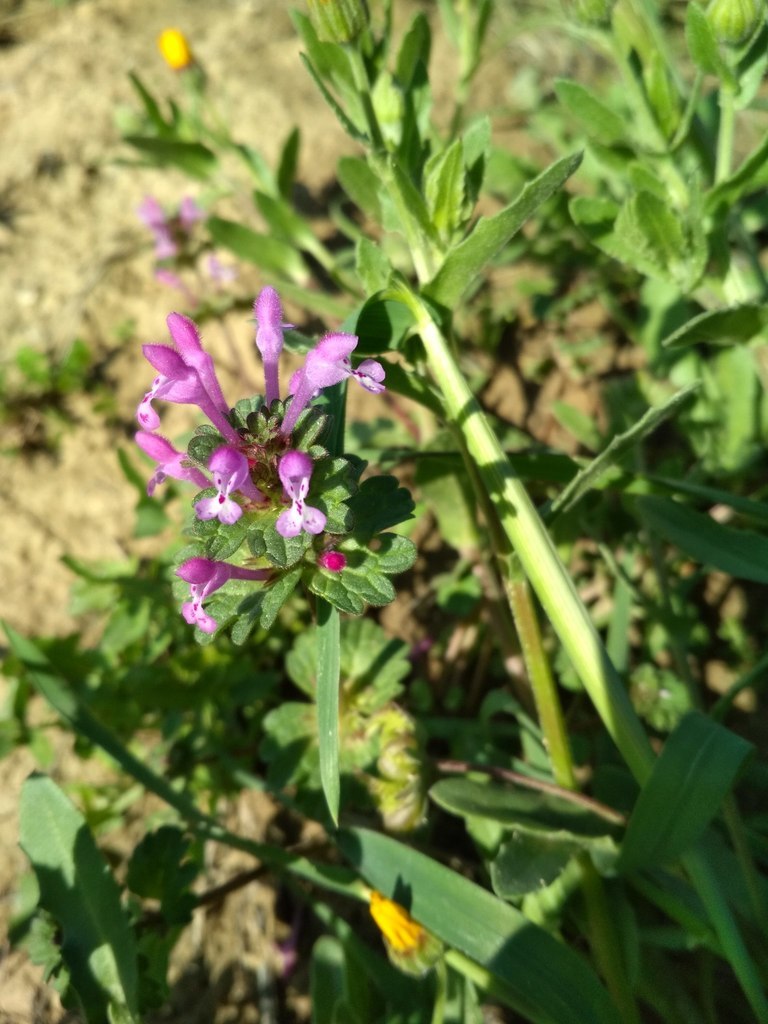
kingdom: Plantae
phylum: Tracheophyta
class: Magnoliopsida
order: Lamiales
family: Lamiaceae
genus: Lamium
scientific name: Lamium amplexicaule
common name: Henbit dead-nettle
